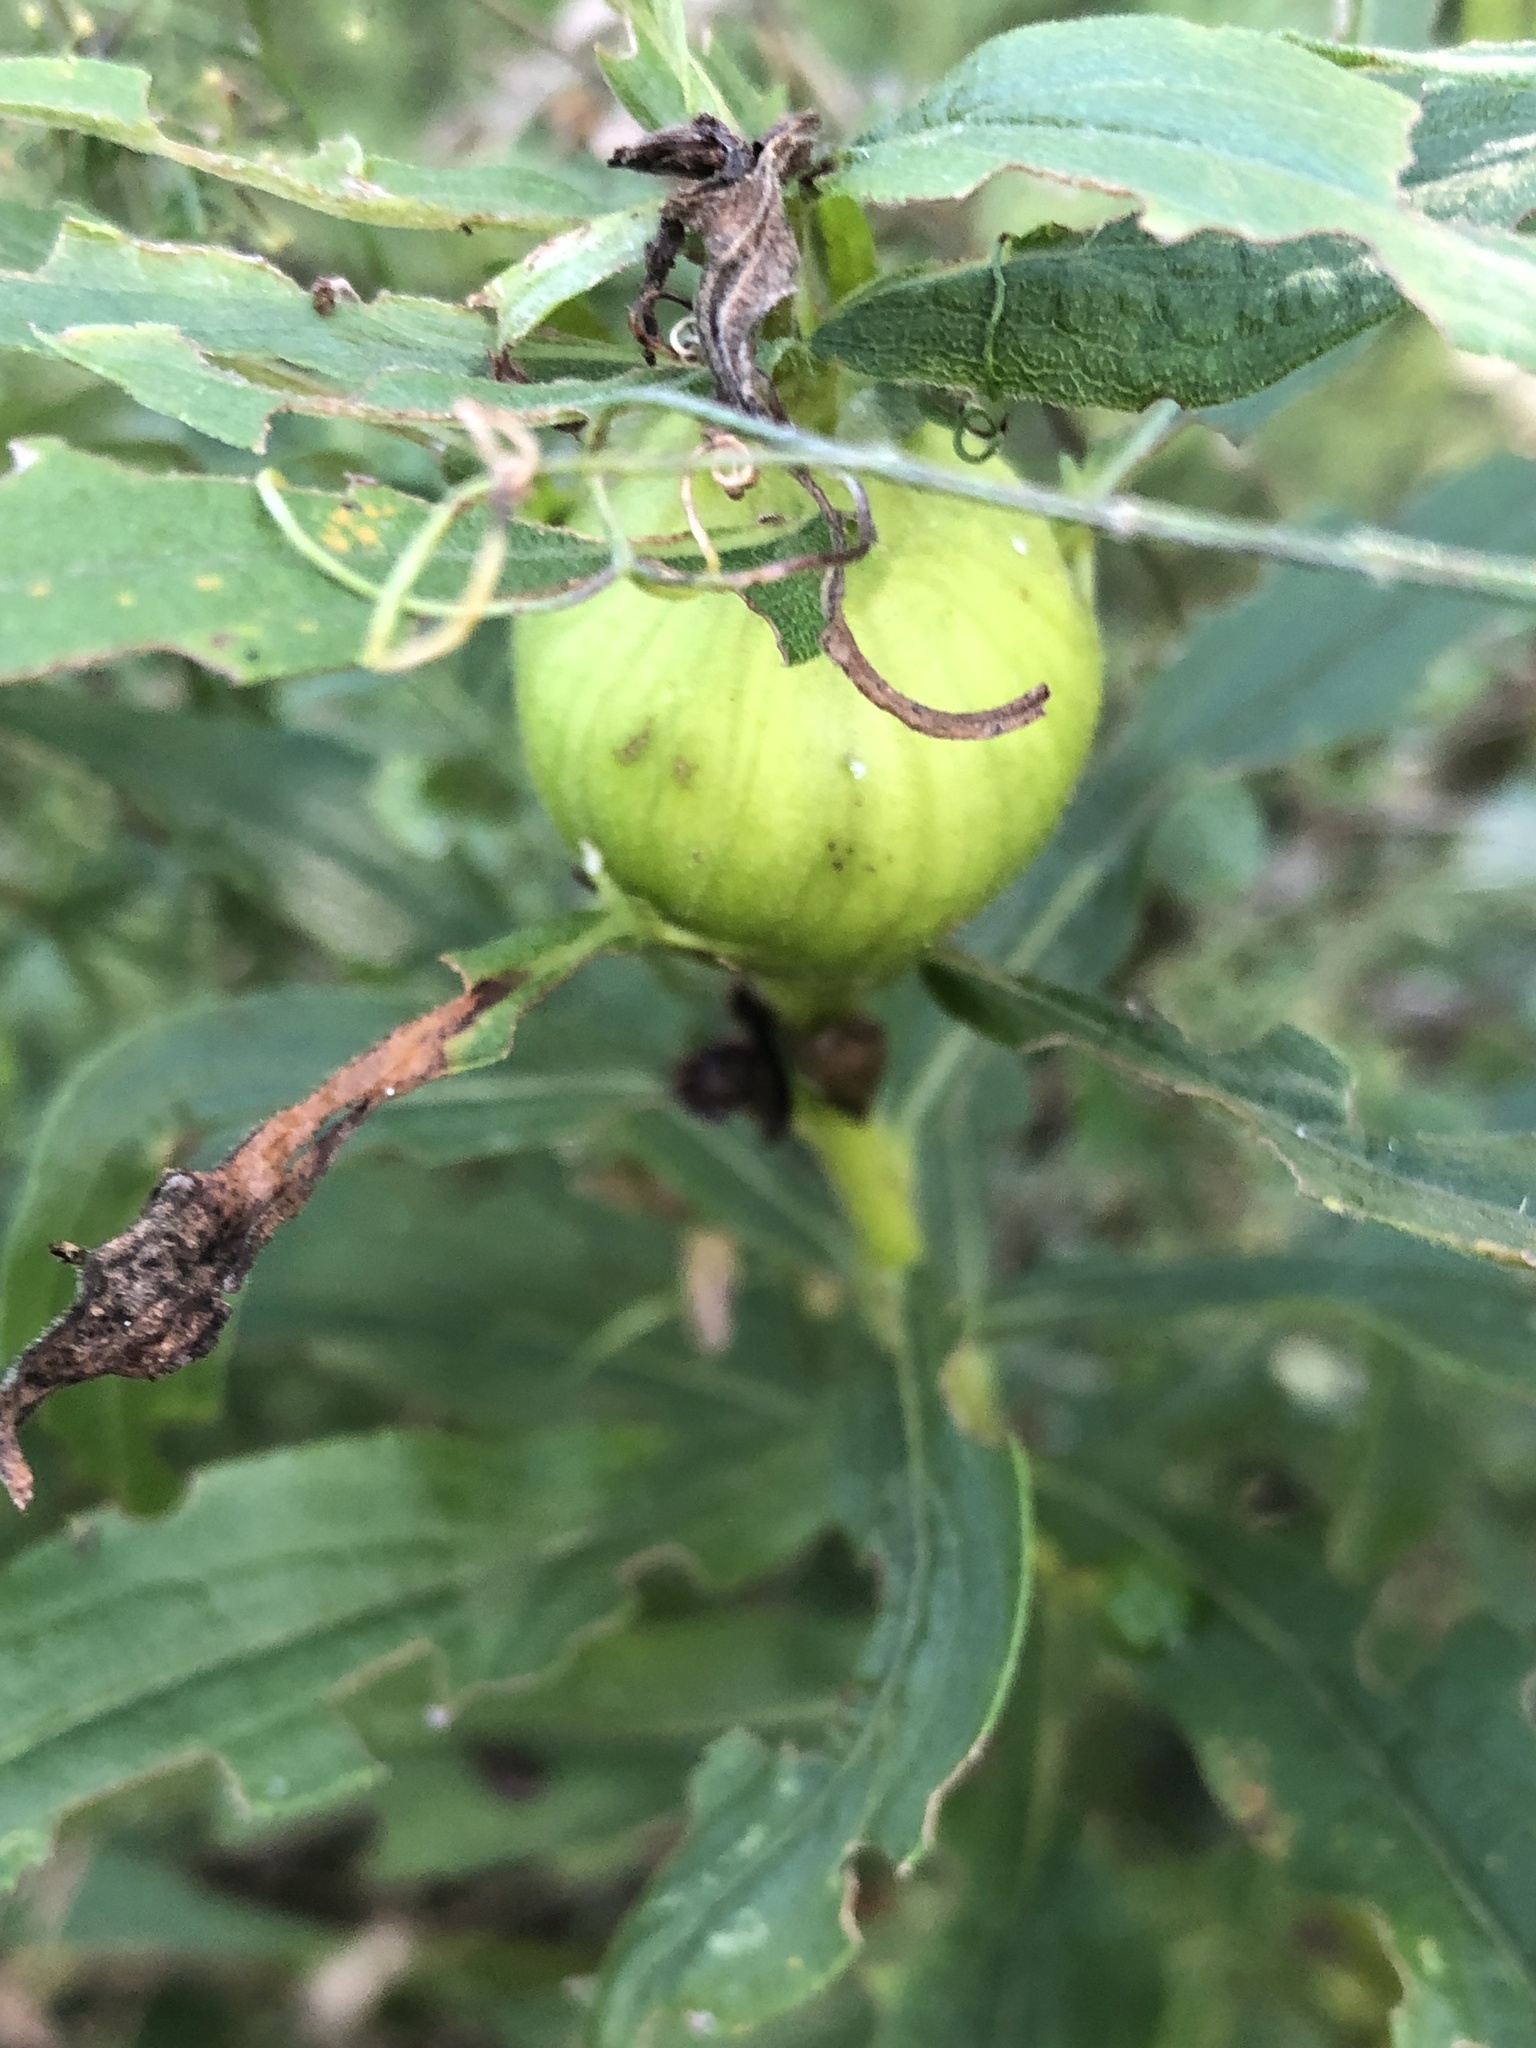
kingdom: Animalia
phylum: Arthropoda
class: Insecta
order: Diptera
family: Tephritidae
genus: Eurosta
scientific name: Eurosta solidaginis
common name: Goldenrod gall fly
